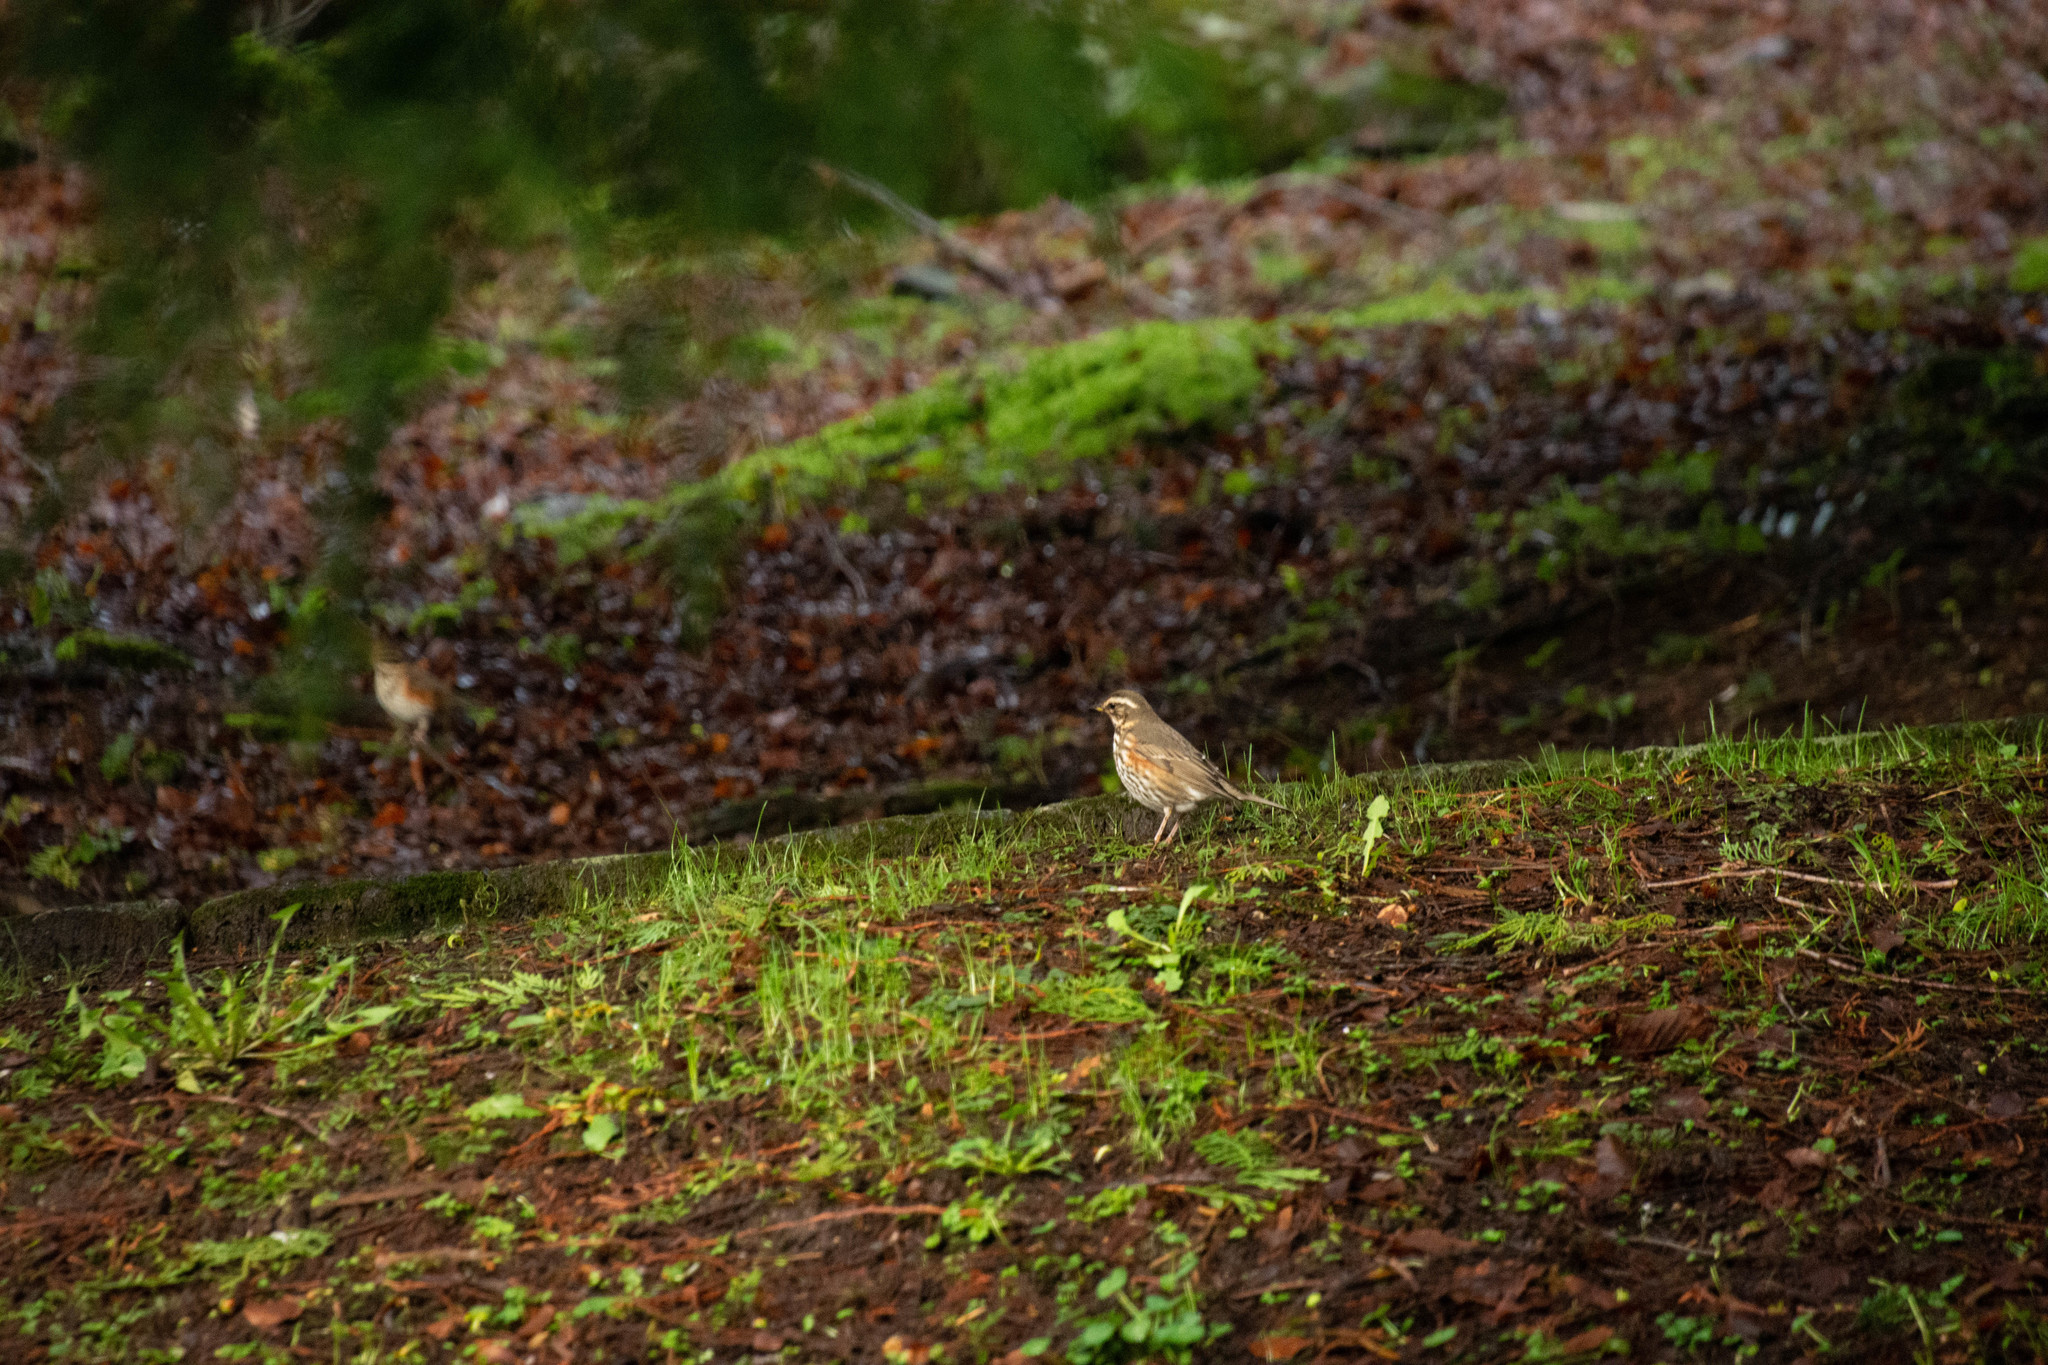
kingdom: Animalia
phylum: Chordata
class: Aves
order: Passeriformes
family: Turdidae
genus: Turdus
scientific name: Turdus iliacus
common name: Redwing
